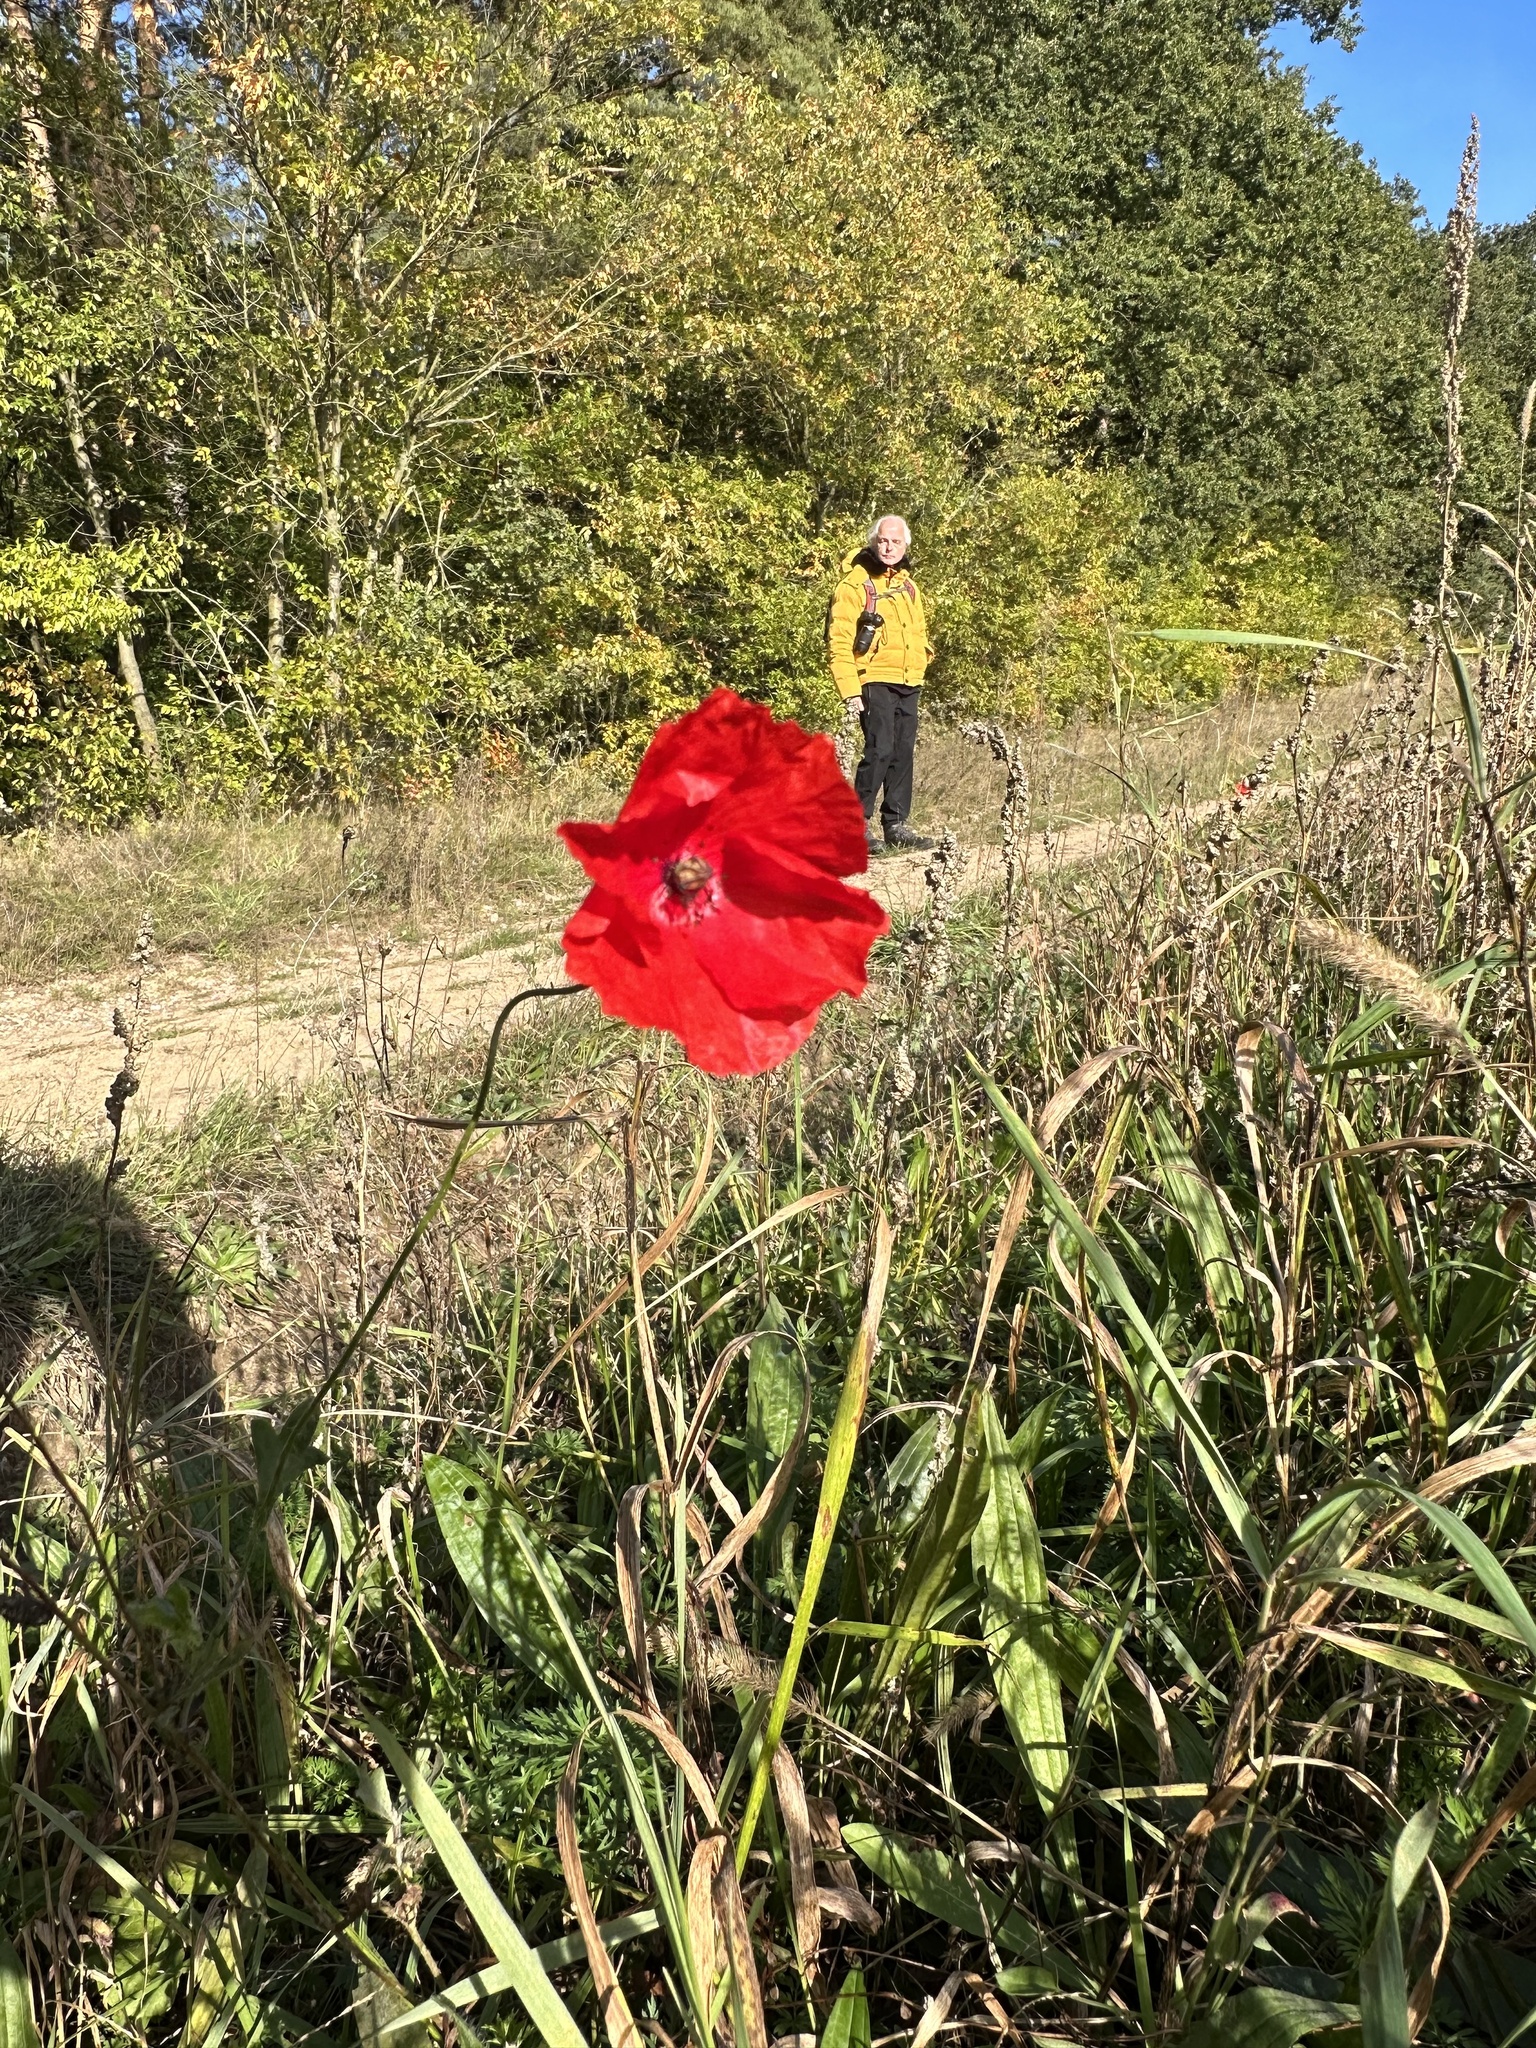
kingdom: Plantae
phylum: Tracheophyta
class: Magnoliopsida
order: Ranunculales
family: Papaveraceae
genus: Papaver
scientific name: Papaver rhoeas
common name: Corn poppy
